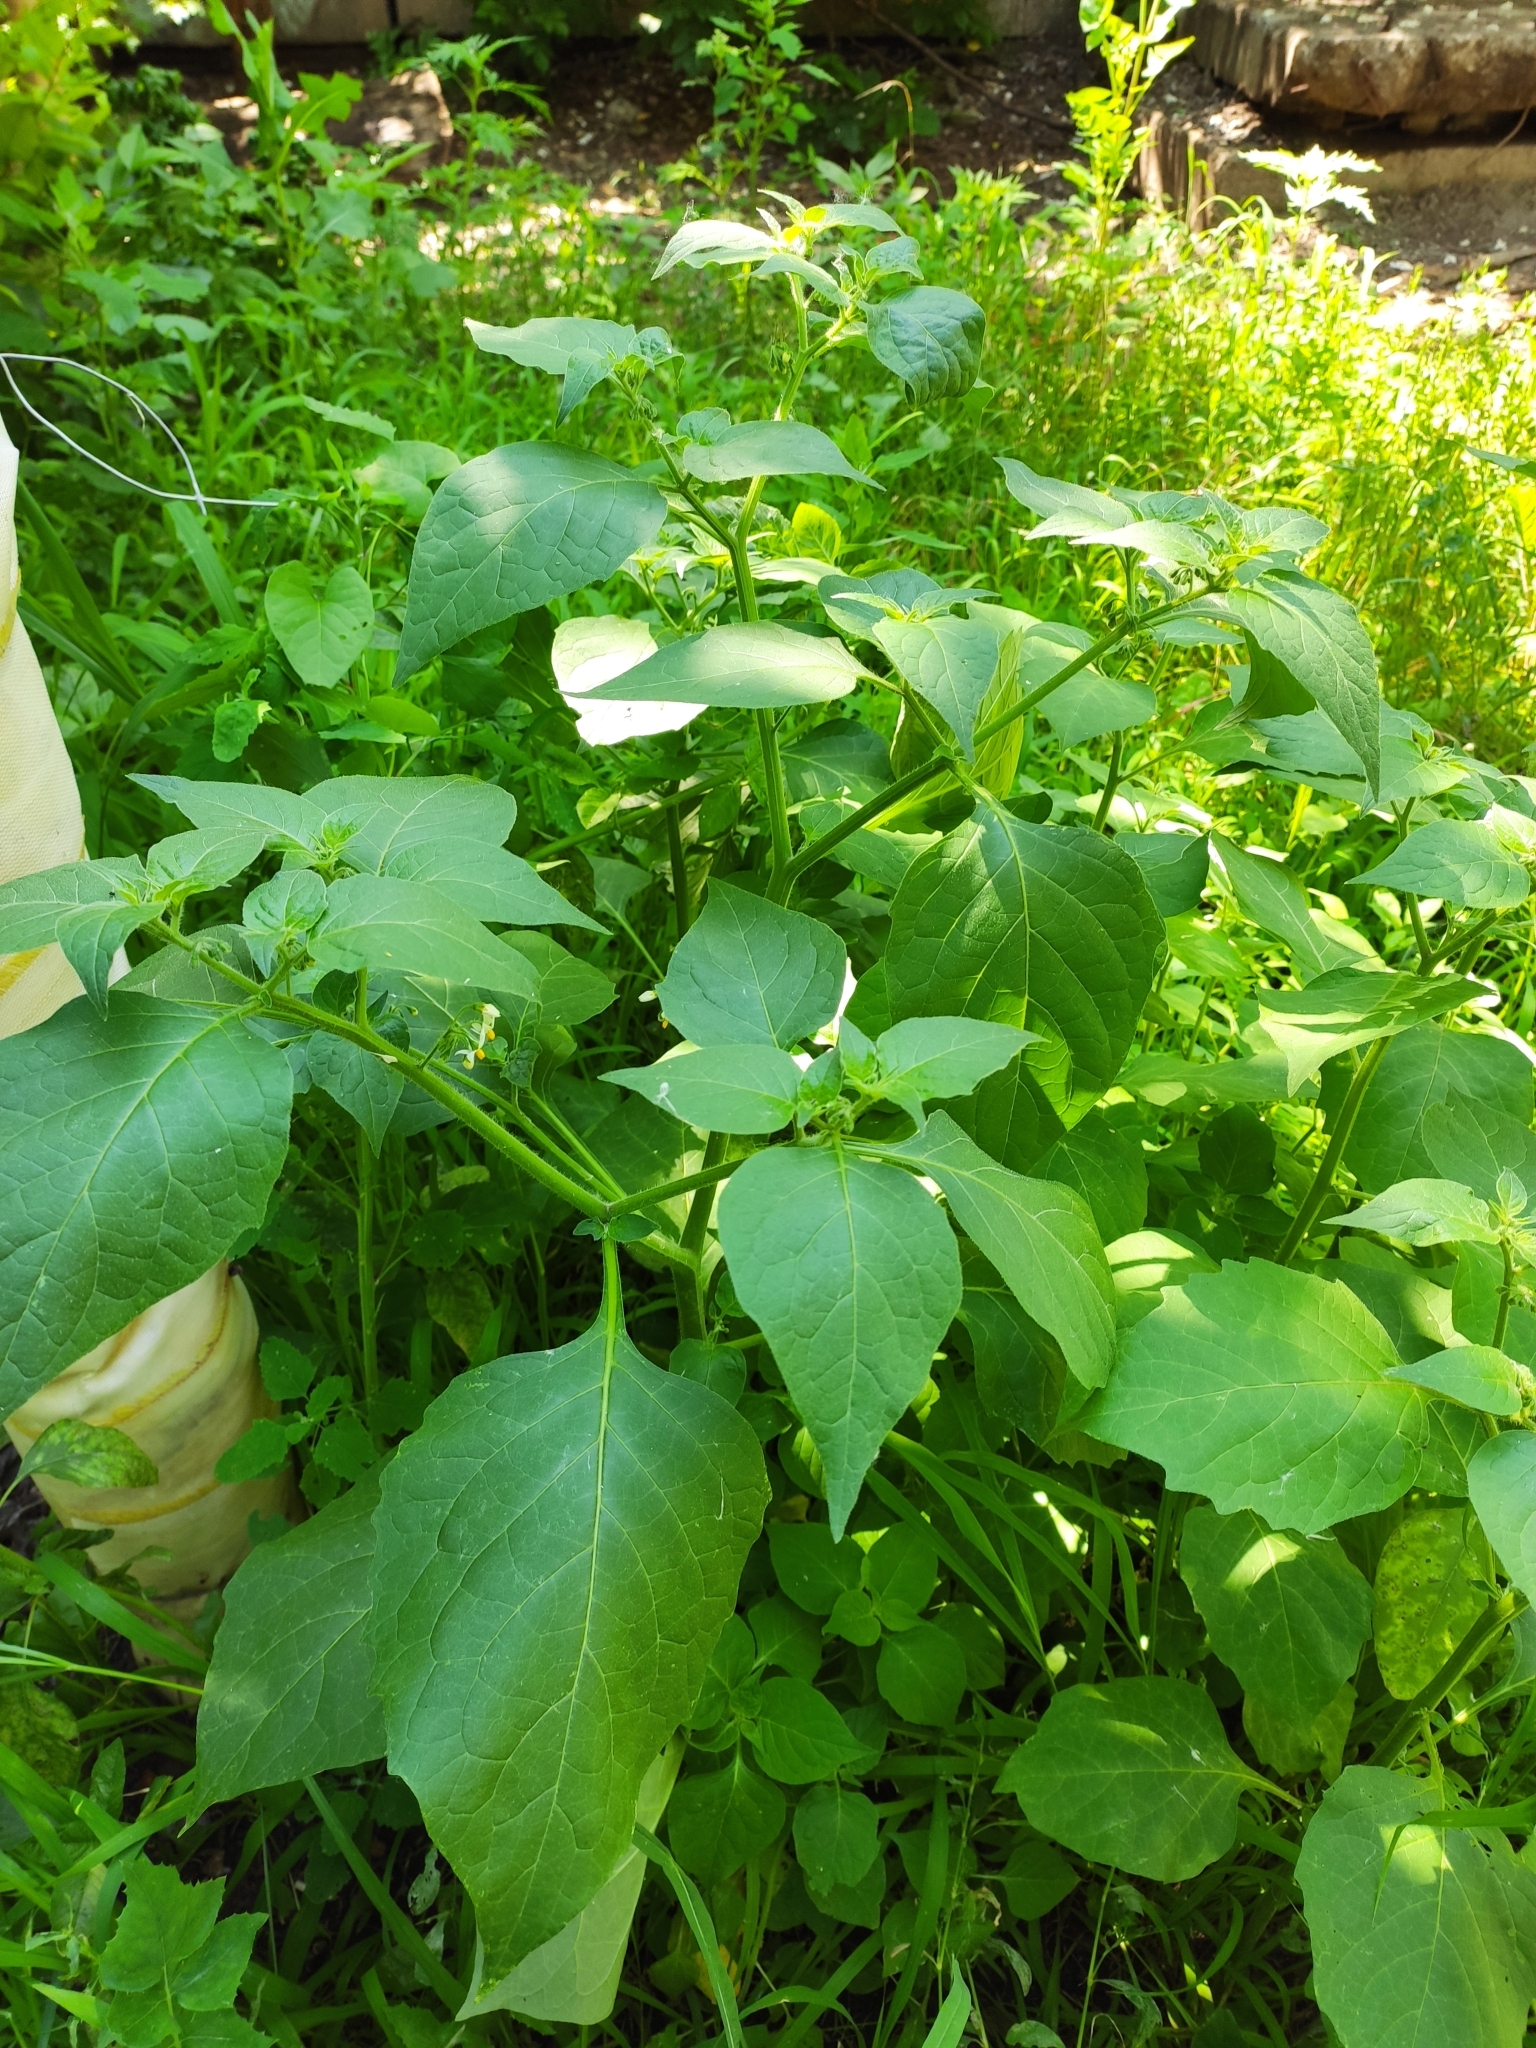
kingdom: Plantae
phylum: Tracheophyta
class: Magnoliopsida
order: Solanales
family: Solanaceae
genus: Solanum
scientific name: Solanum nigrum
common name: Black nightshade
